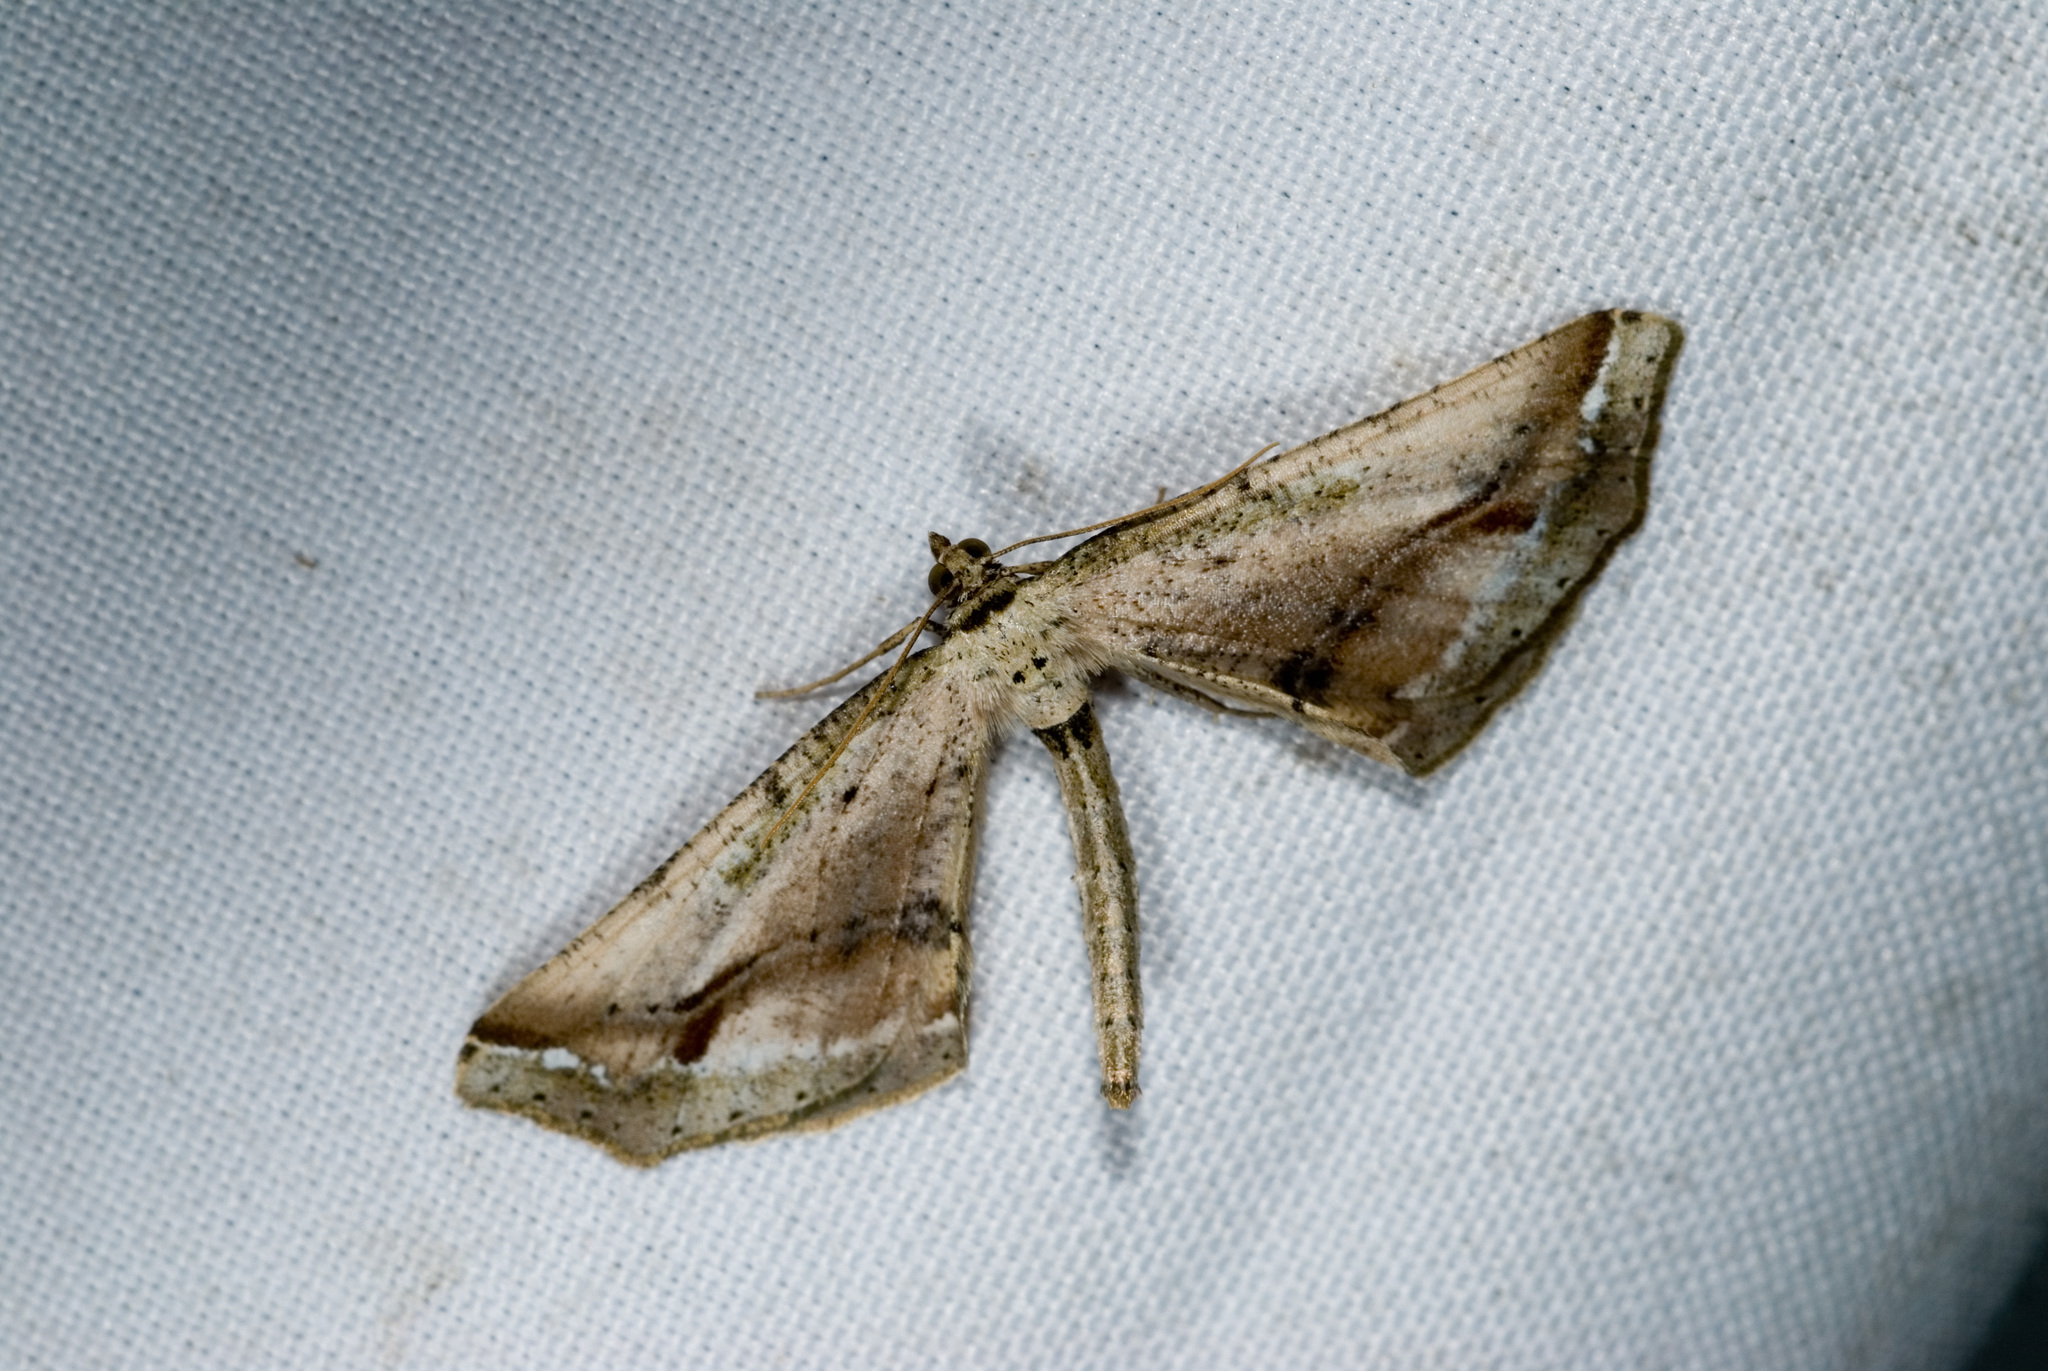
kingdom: Animalia
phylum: Arthropoda
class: Insecta
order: Lepidoptera
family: Geometridae
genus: Oxymacaria
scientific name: Oxymacaria truncaria
